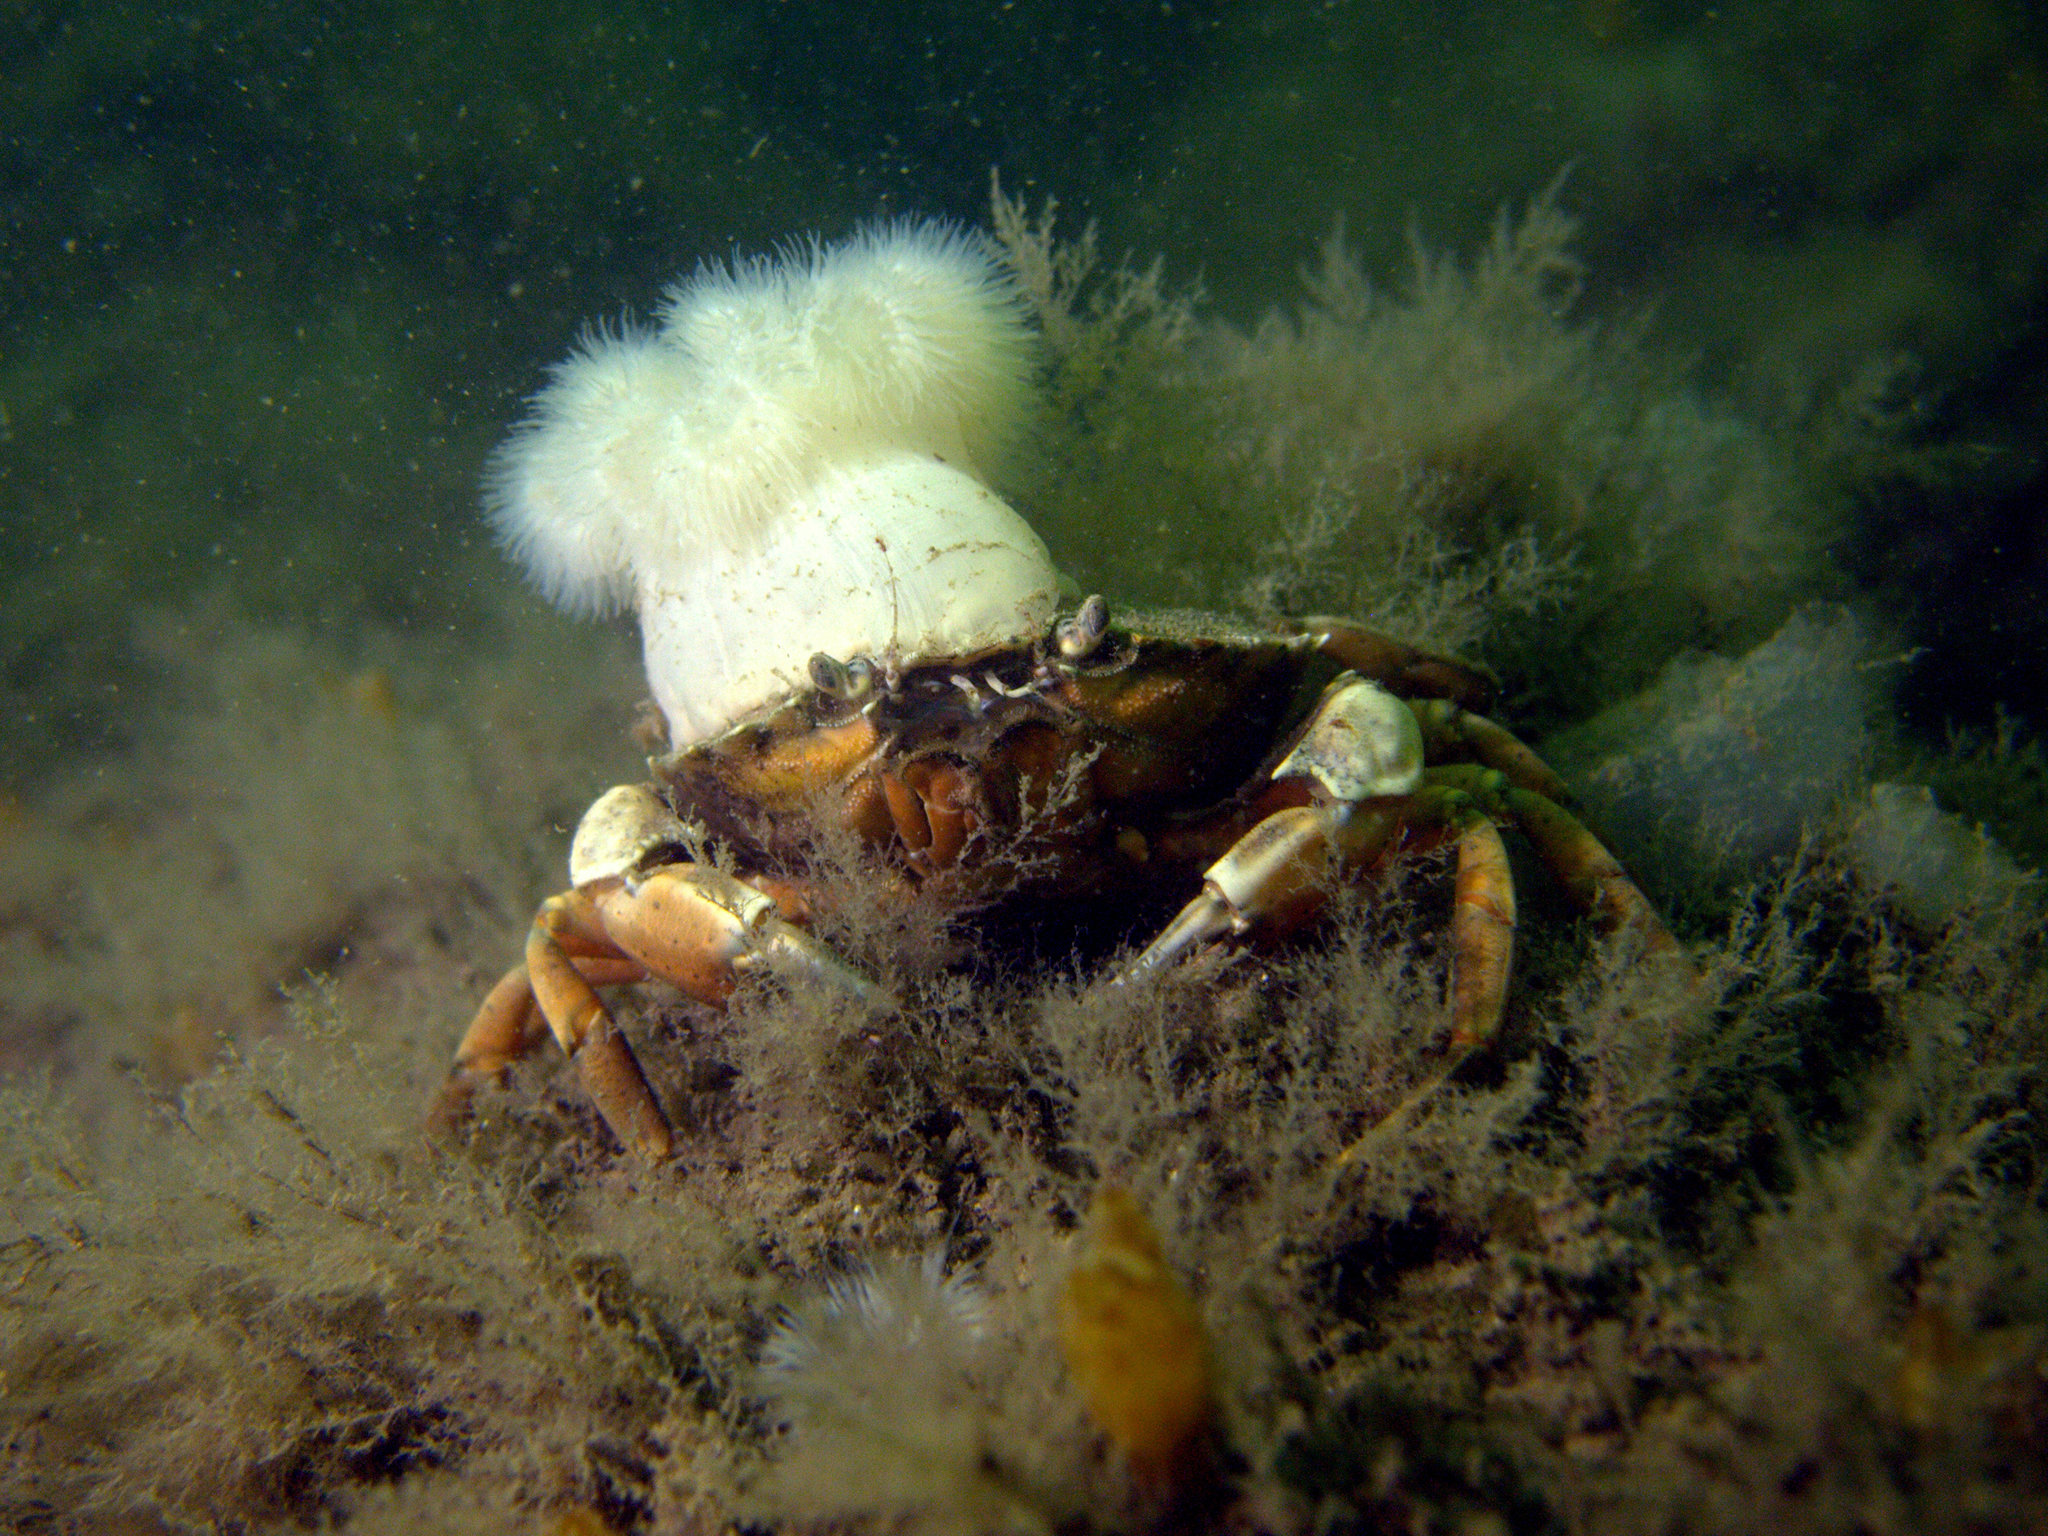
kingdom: Animalia
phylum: Arthropoda
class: Malacostraca
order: Decapoda
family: Carcinidae
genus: Carcinus
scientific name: Carcinus maenas
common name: European green crab
